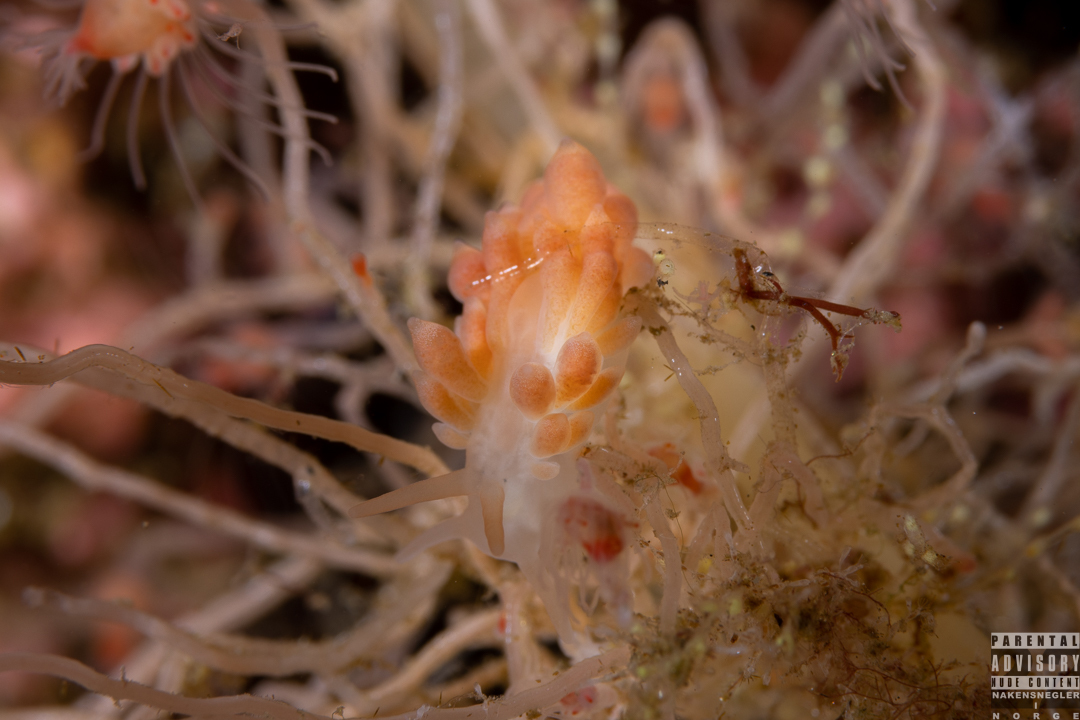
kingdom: Animalia
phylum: Mollusca
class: Gastropoda
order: Nudibranchia
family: Trinchesiidae
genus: Catriona
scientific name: Catriona aurantia
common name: Corange-tip cuthona
